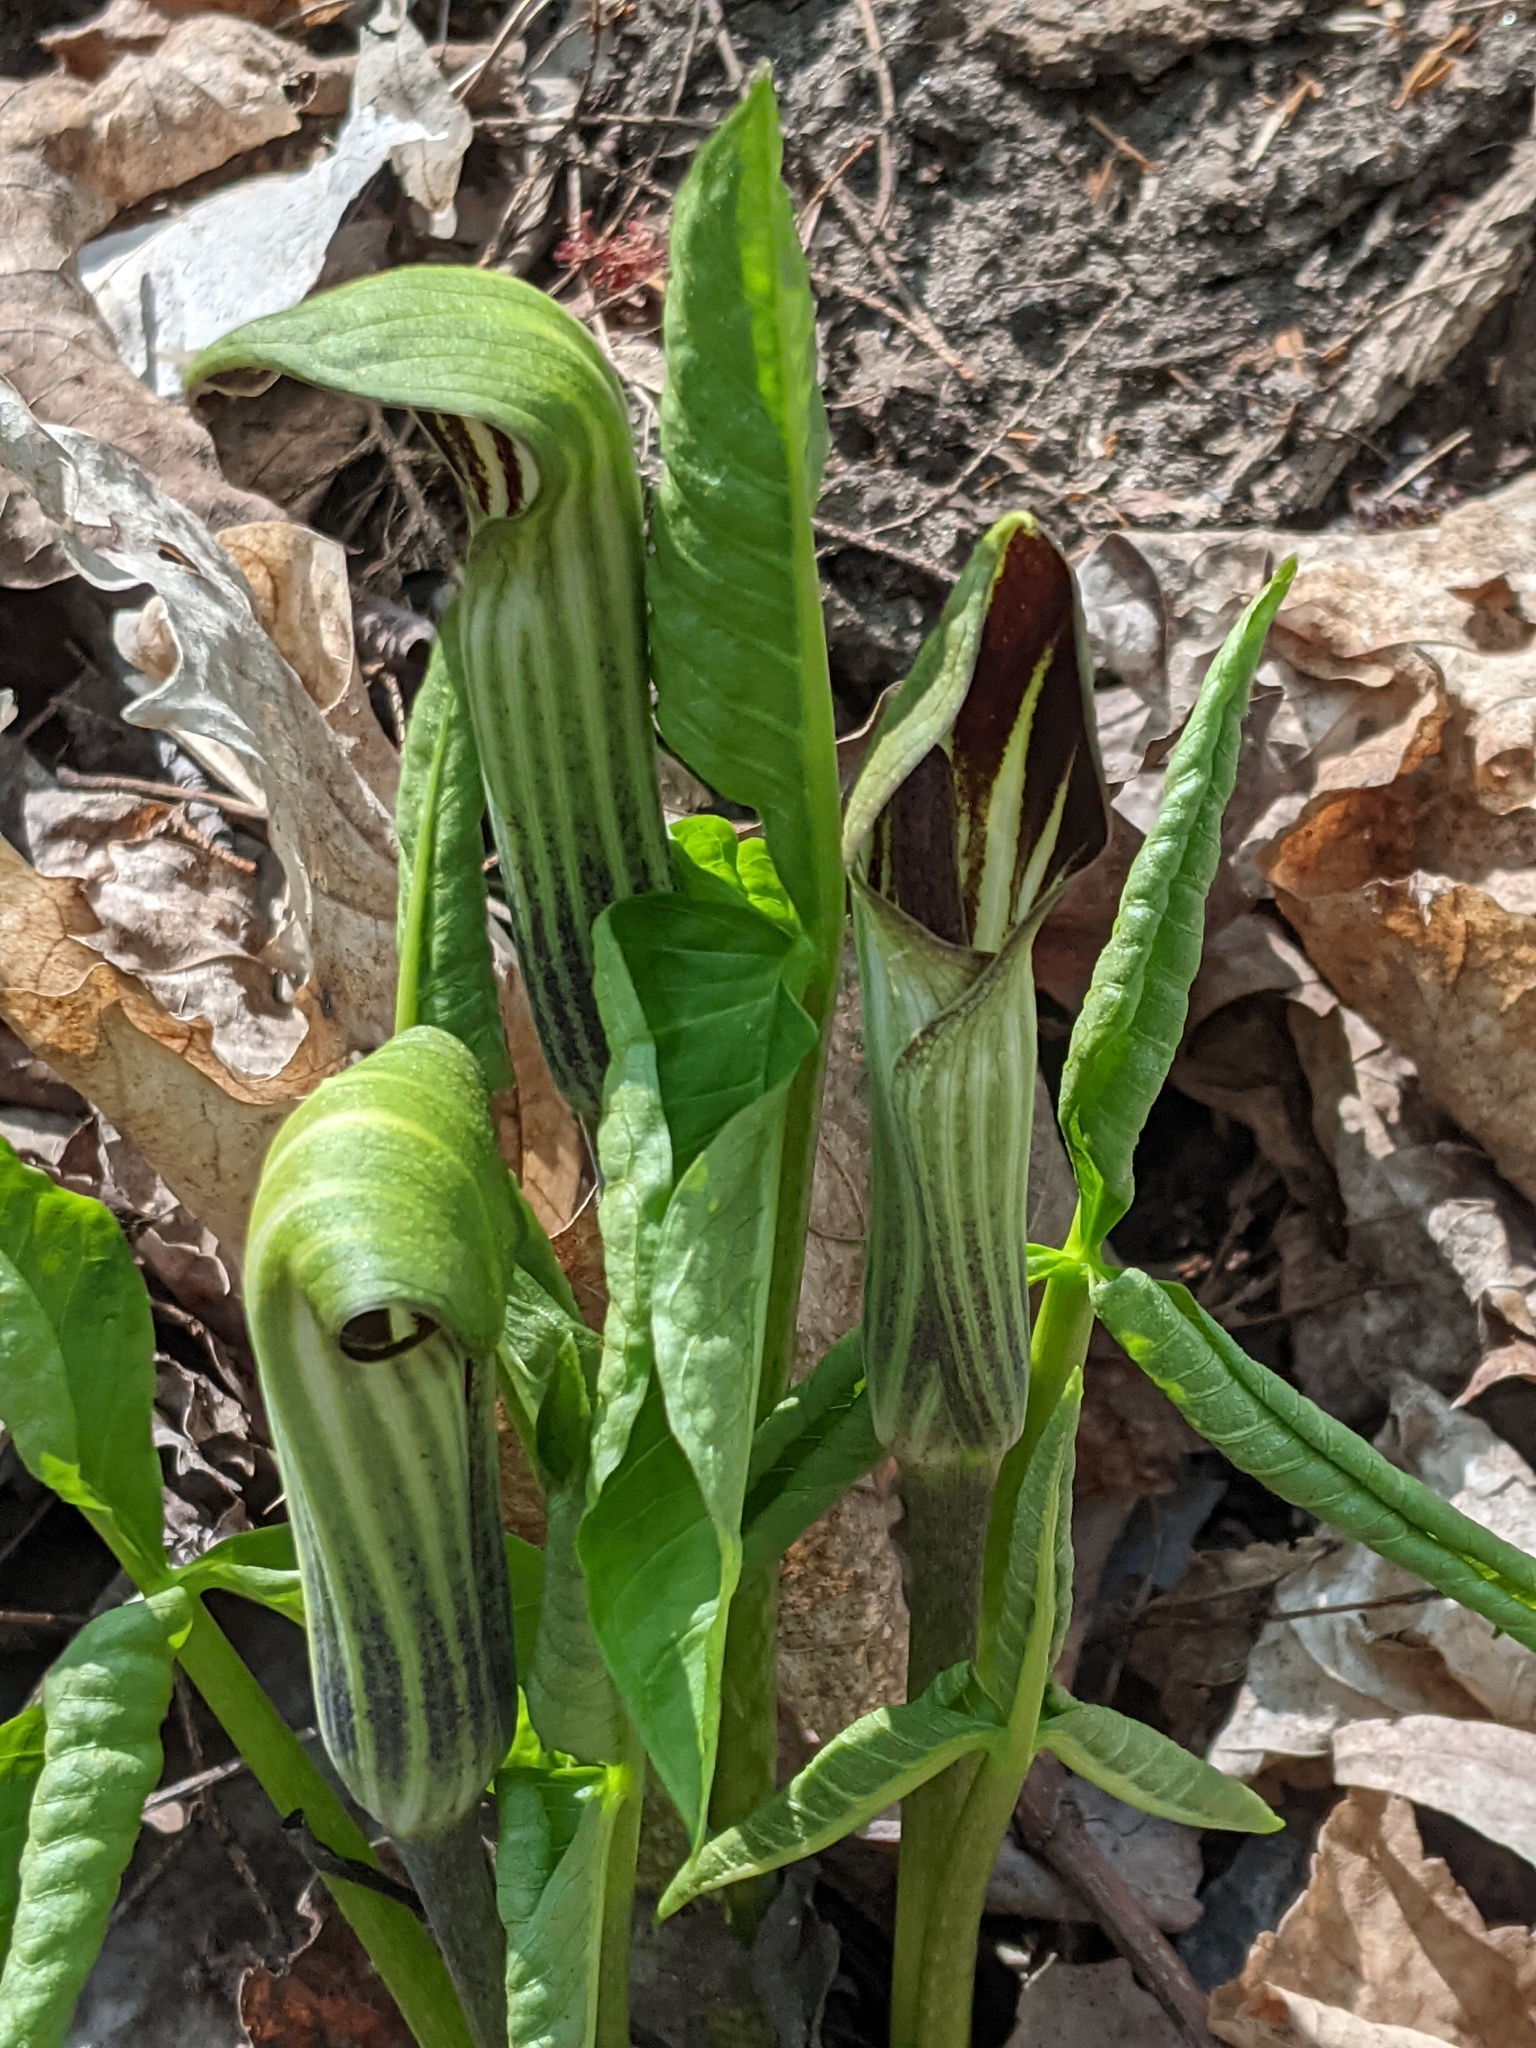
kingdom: Plantae
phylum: Tracheophyta
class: Liliopsida
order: Alismatales
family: Araceae
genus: Arisaema
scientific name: Arisaema triphyllum
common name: Jack-in-the-pulpit
